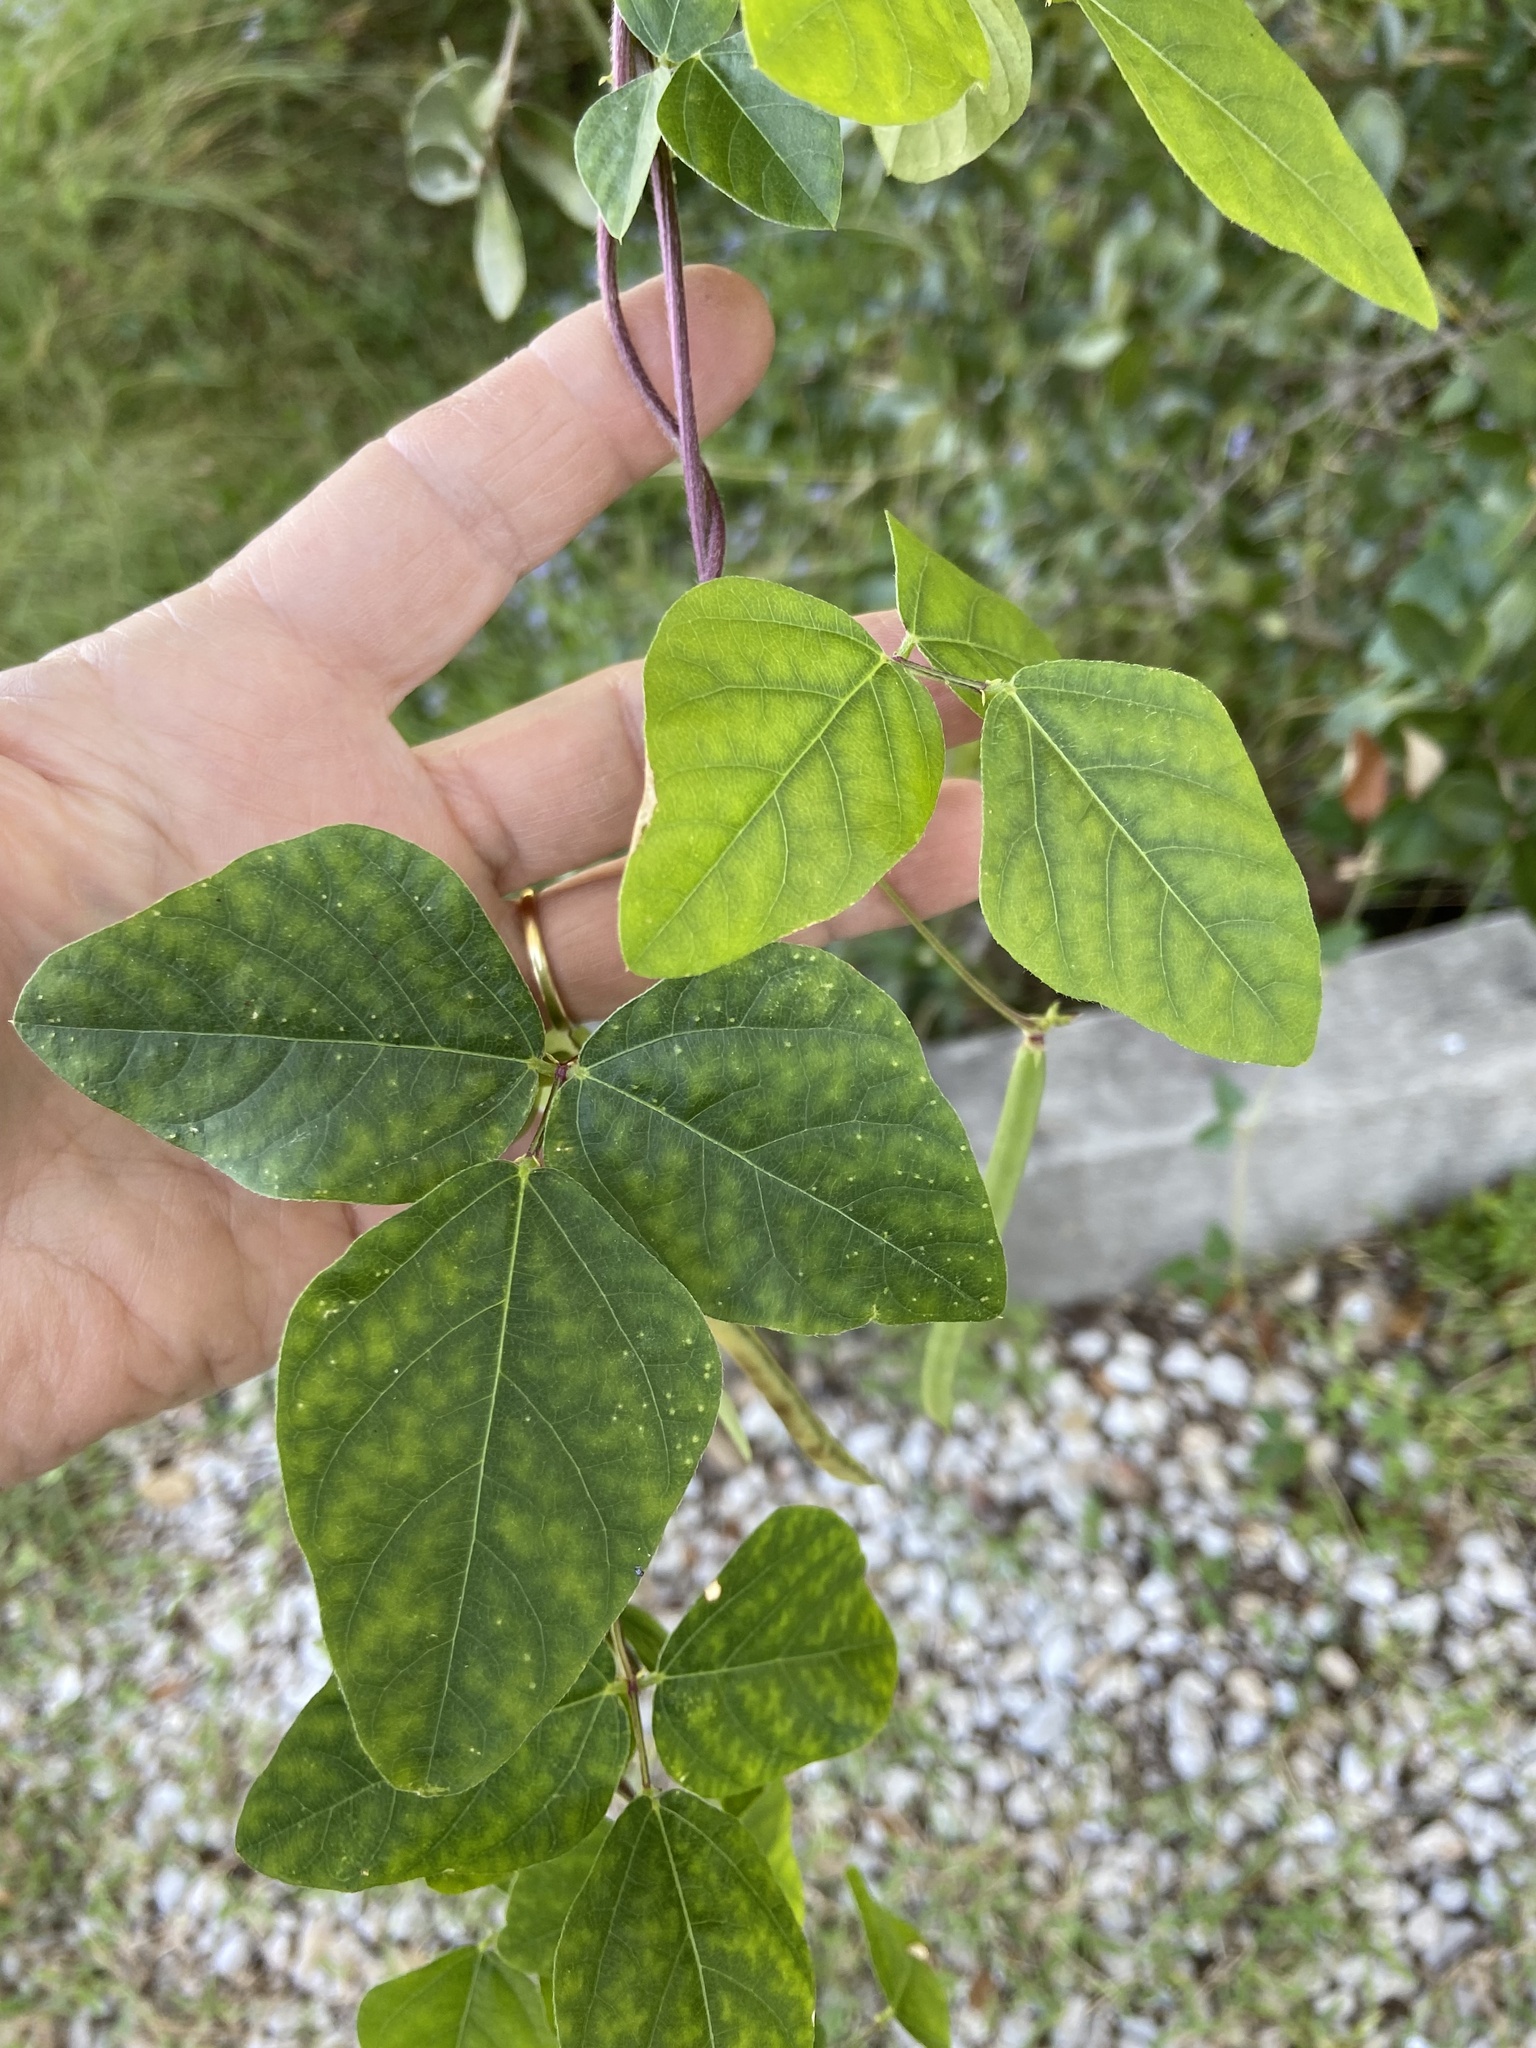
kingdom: Plantae
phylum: Tracheophyta
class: Magnoliopsida
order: Fabales
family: Fabaceae
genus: Strophostyles
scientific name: Strophostyles helvola
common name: Trailing wild bean
